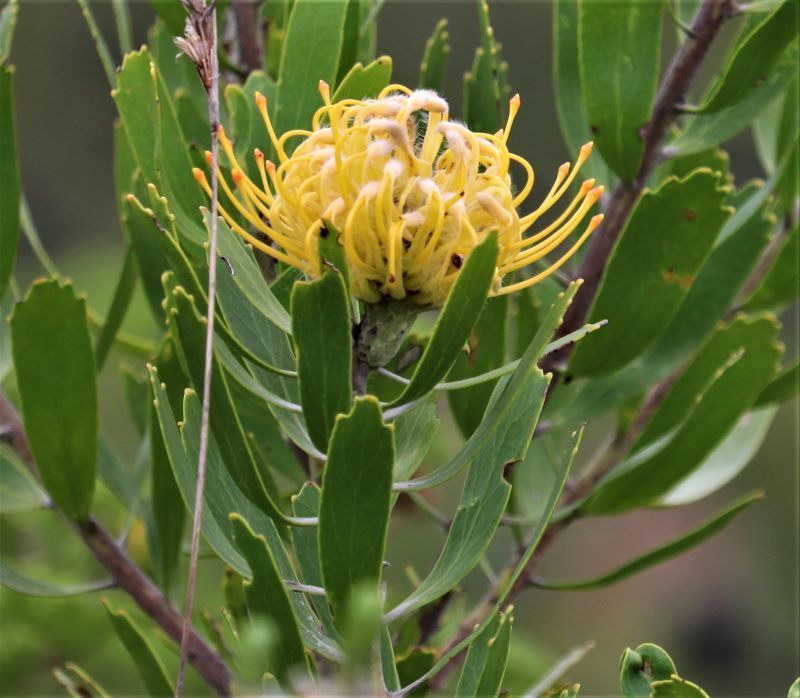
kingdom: Plantae
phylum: Tracheophyta
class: Magnoliopsida
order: Proteales
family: Proteaceae
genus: Leucospermum
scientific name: Leucospermum cuneiforme
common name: Common pincushion
